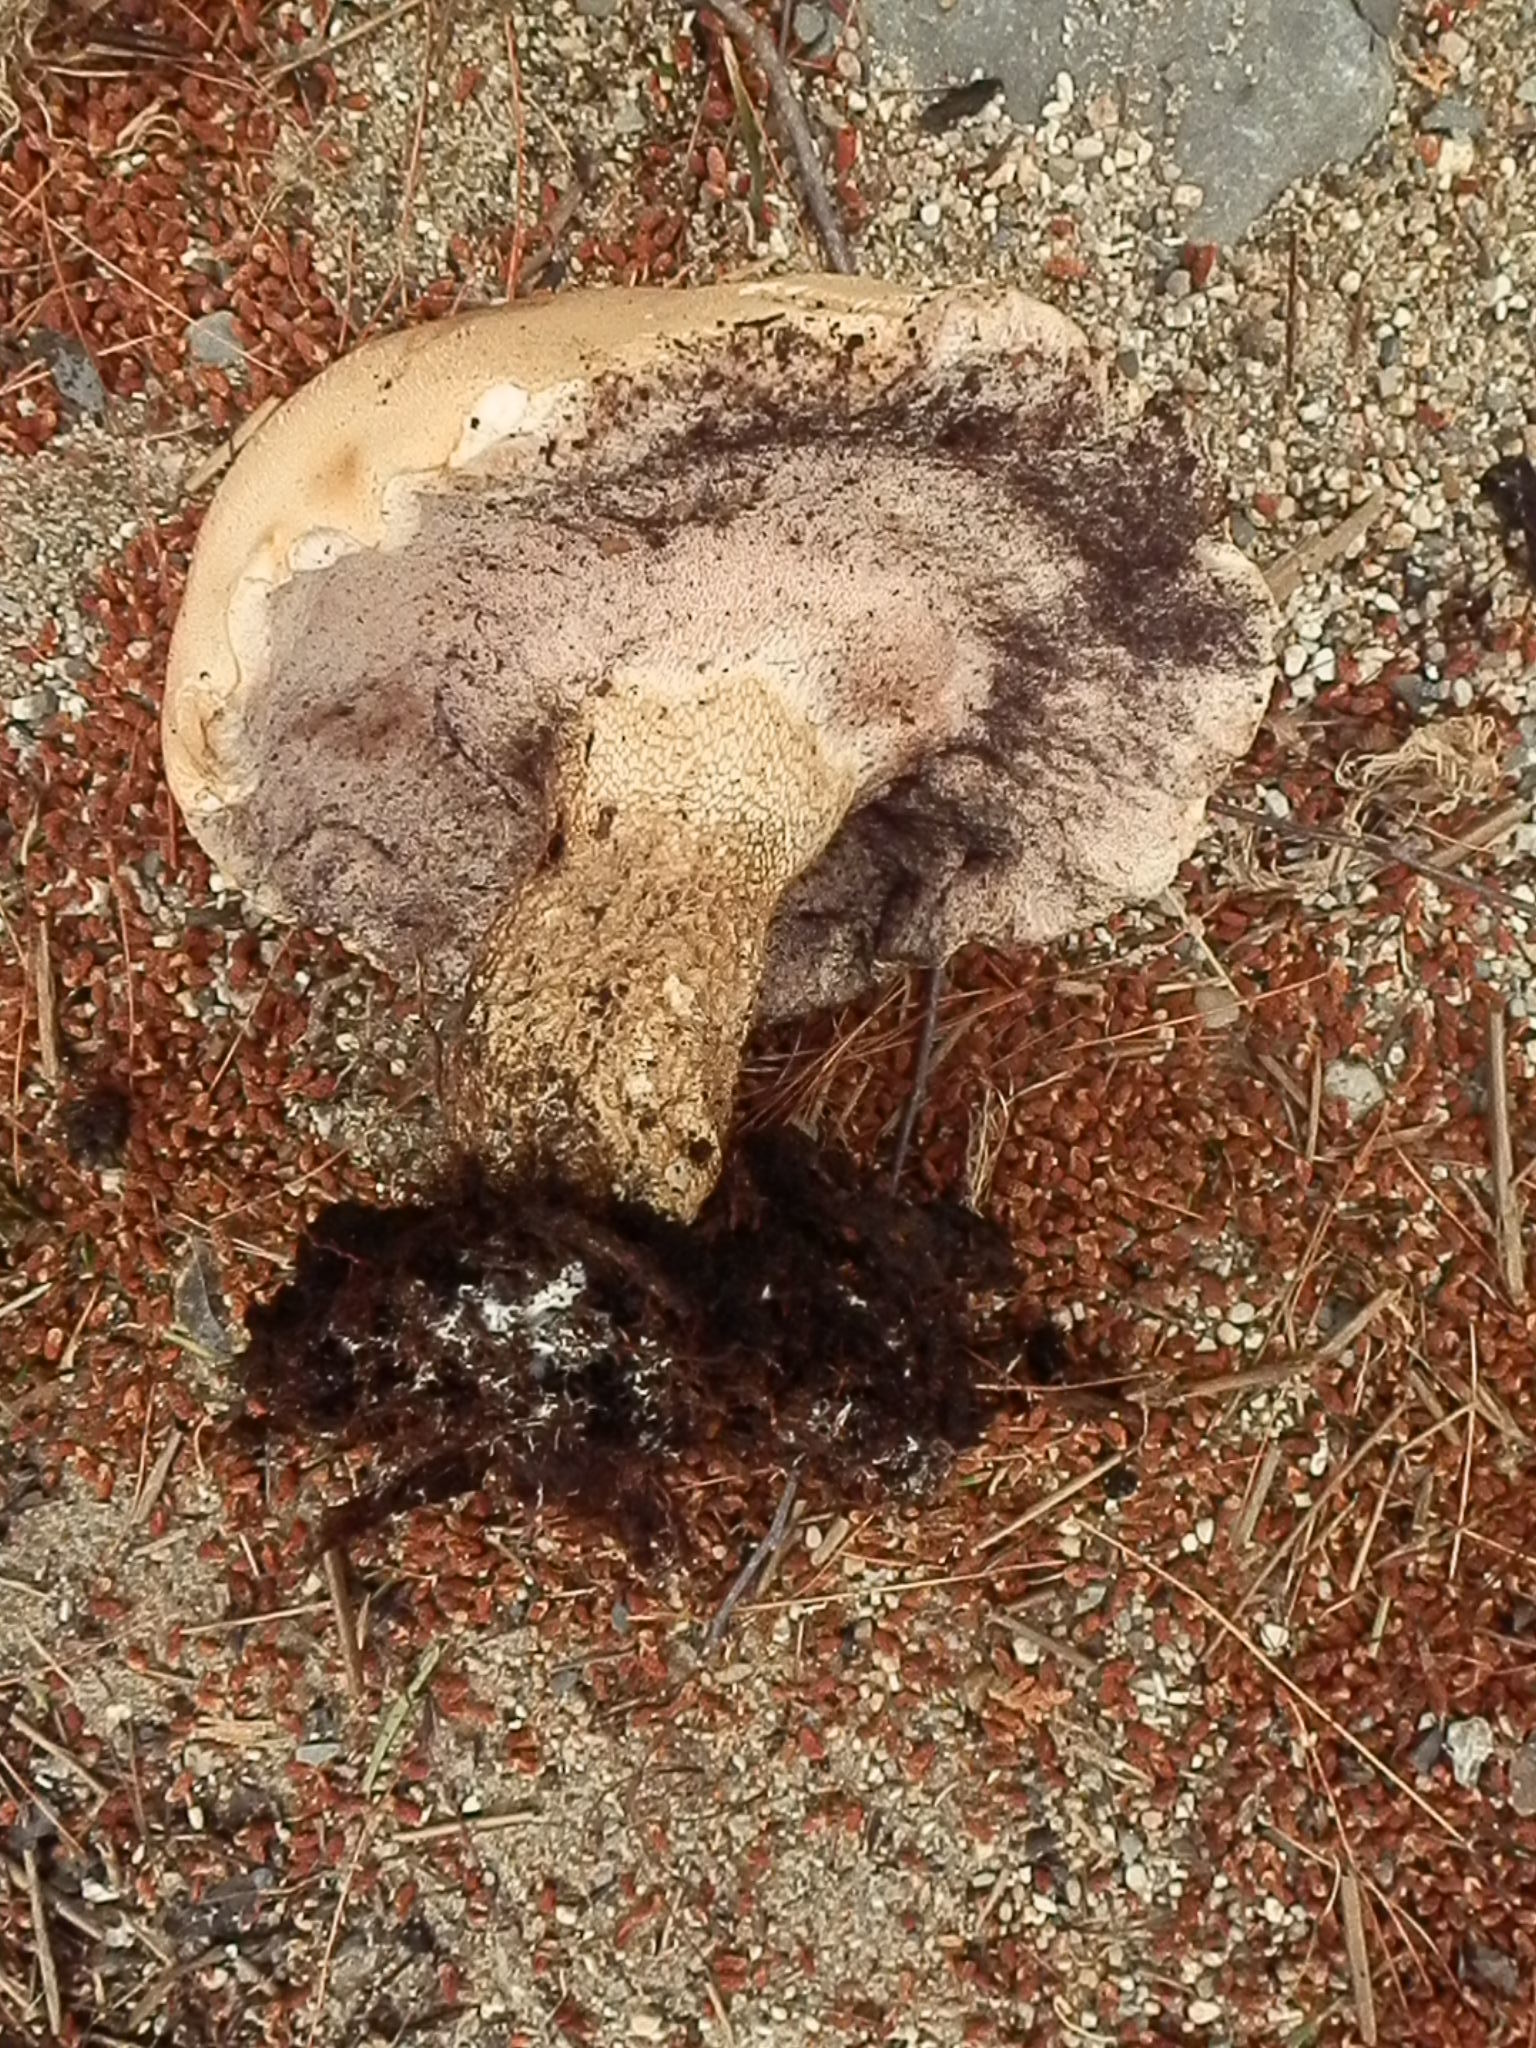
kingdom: Fungi
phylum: Basidiomycota
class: Agaricomycetes
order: Boletales
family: Boletaceae
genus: Tylopilus
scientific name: Tylopilus felleus
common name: Bitter bolete
